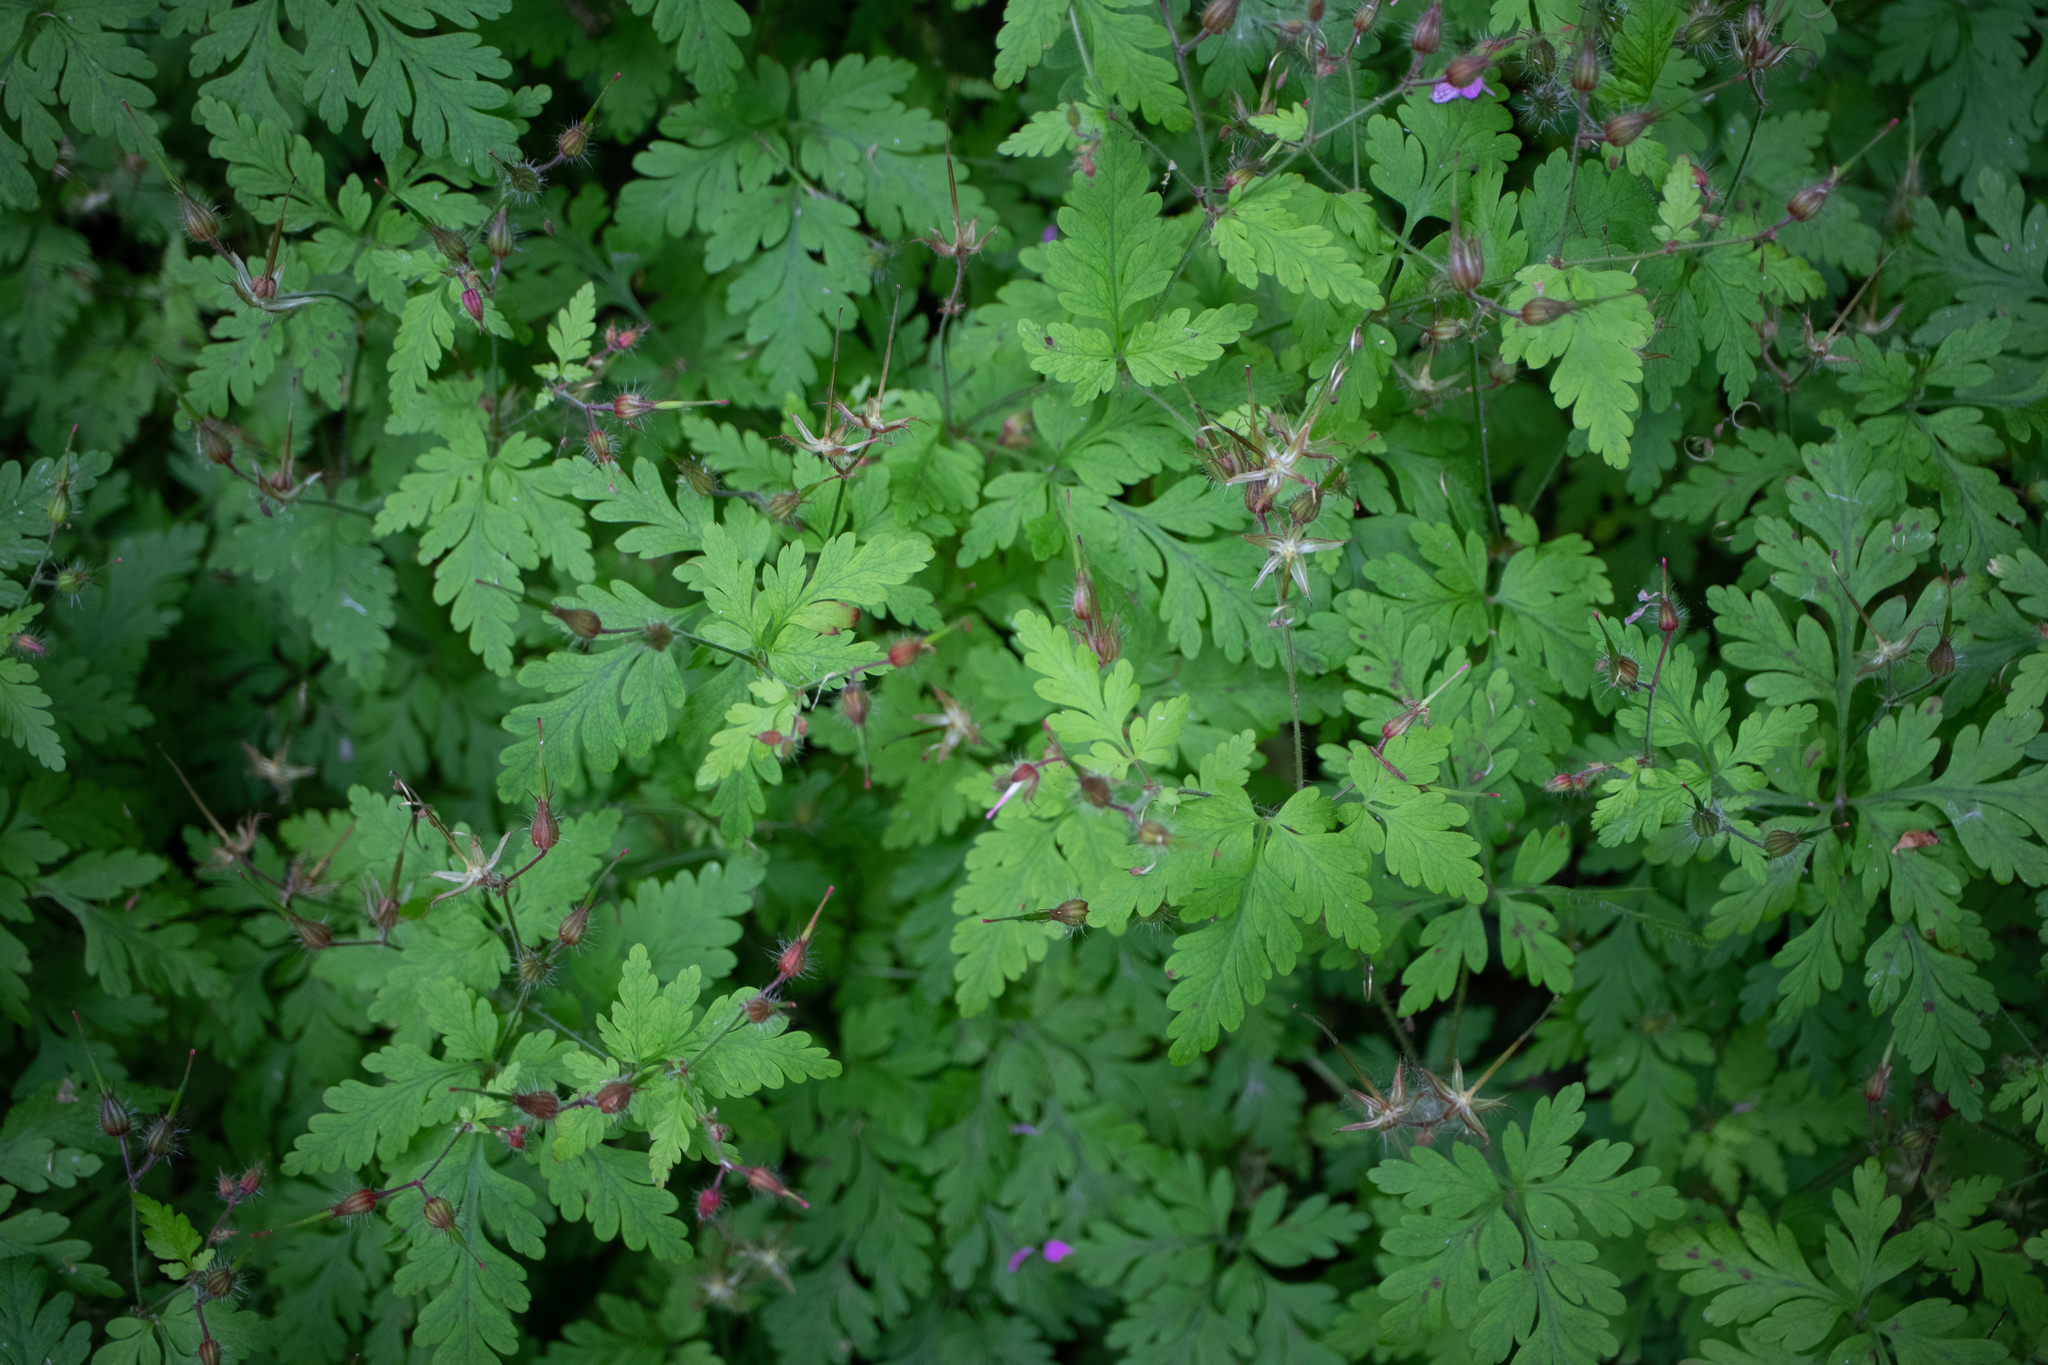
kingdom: Plantae
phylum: Tracheophyta
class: Magnoliopsida
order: Geraniales
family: Geraniaceae
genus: Geranium
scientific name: Geranium robertianum
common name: Herb-robert
